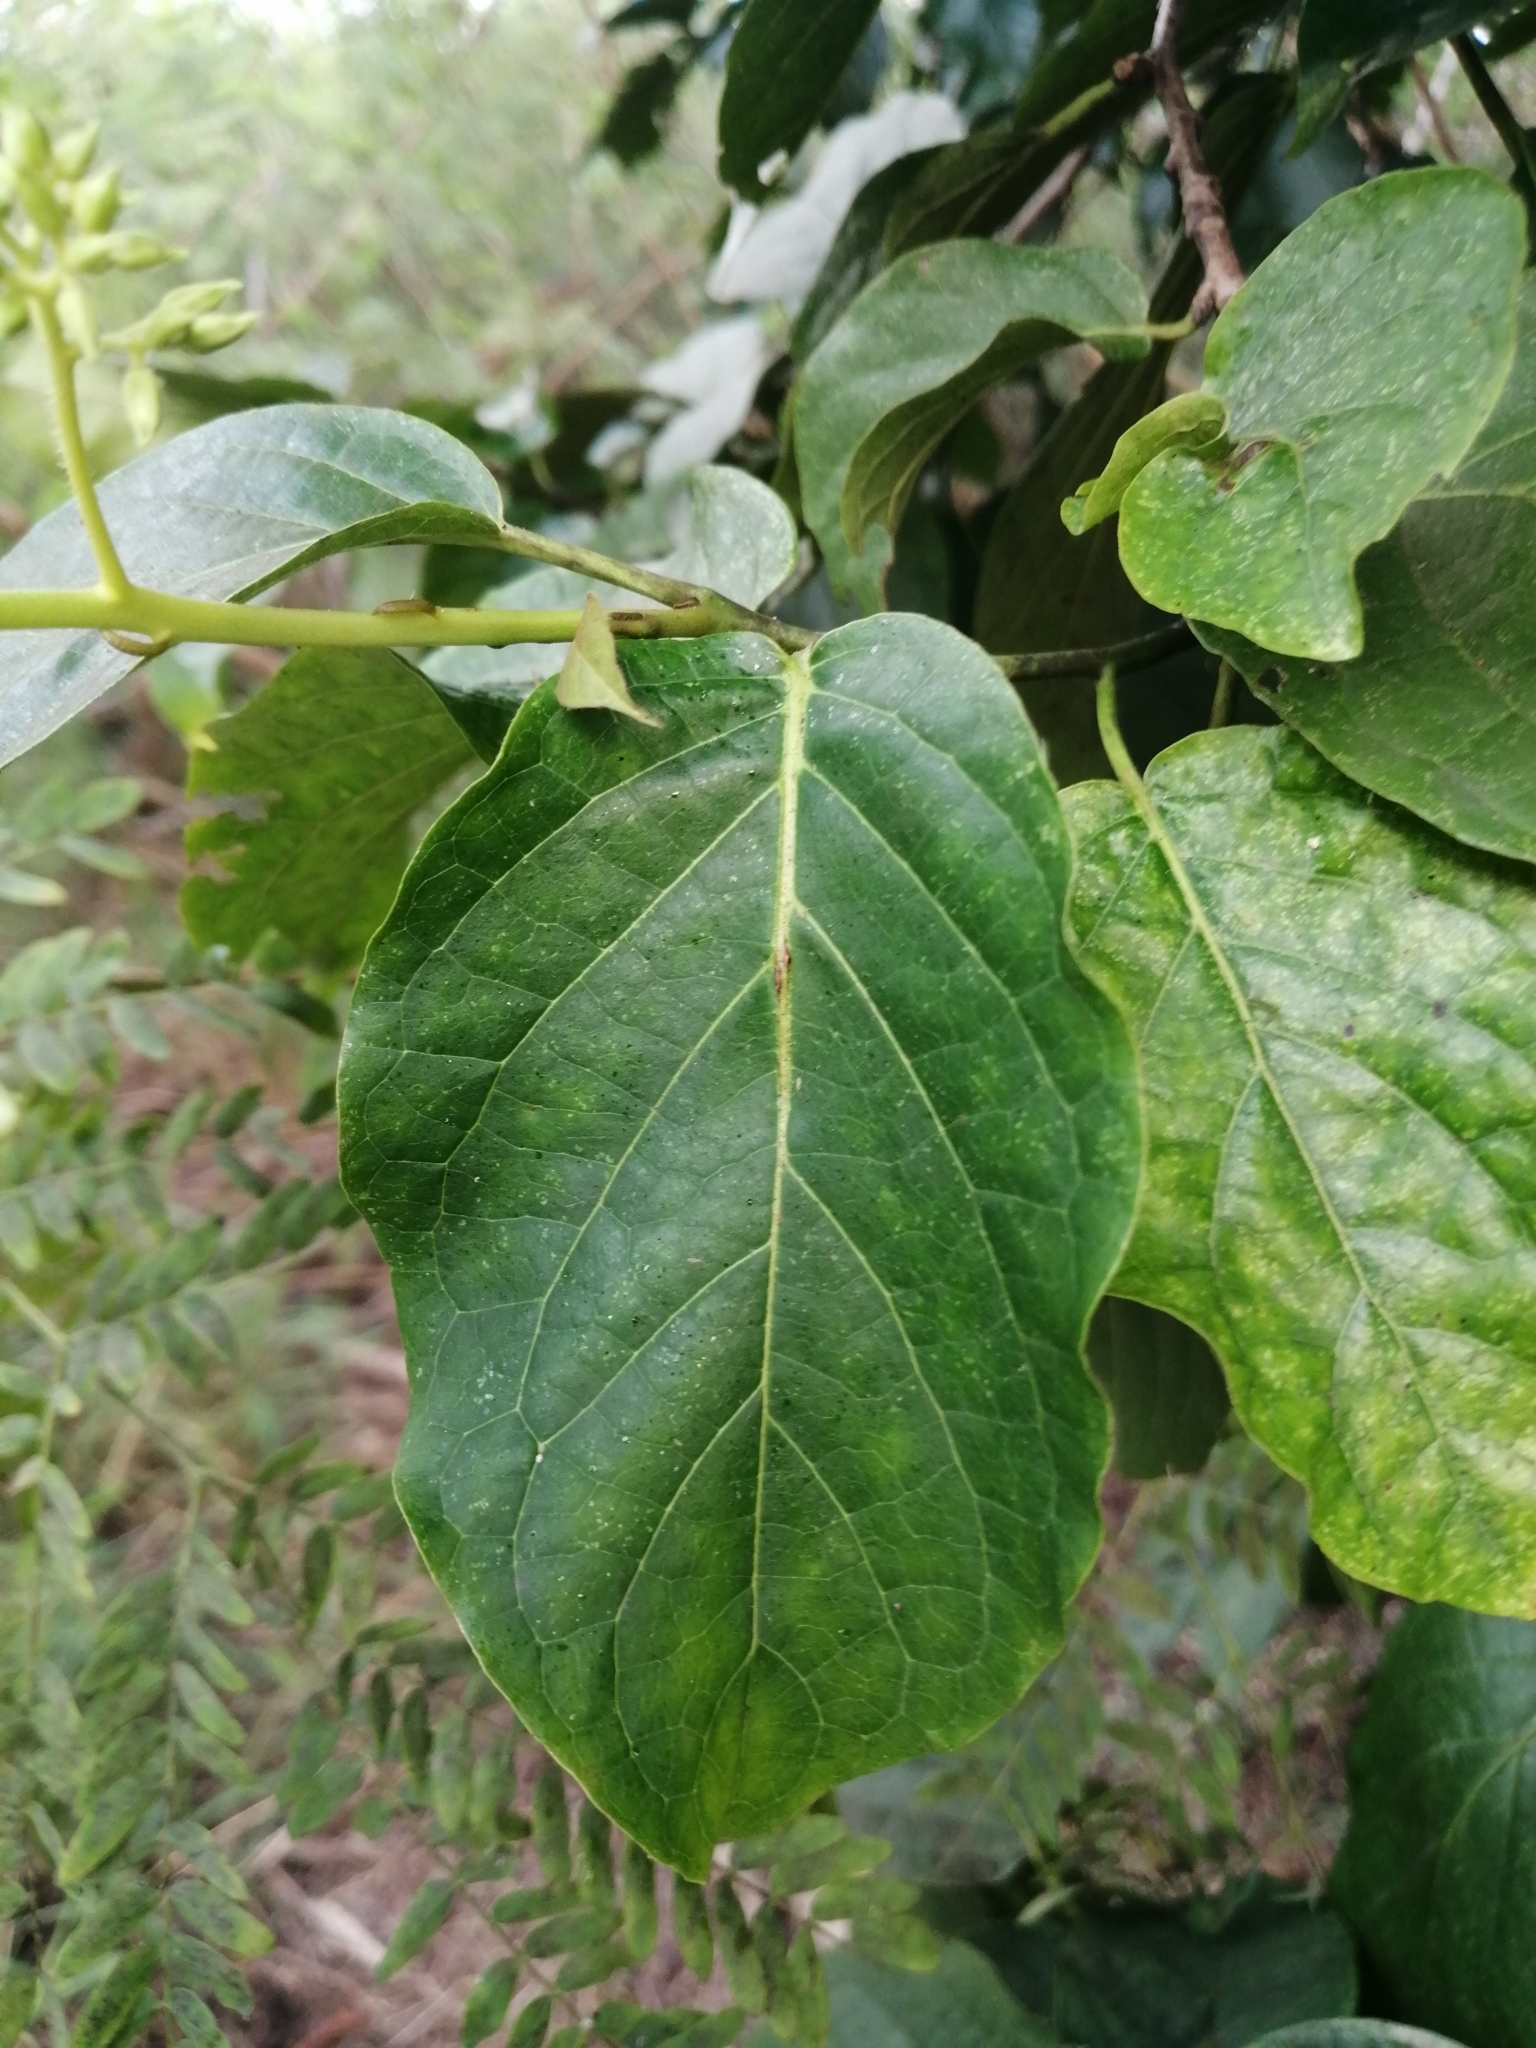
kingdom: Plantae
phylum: Tracheophyta
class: Magnoliopsida
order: Boraginales
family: Ehretiaceae
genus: Ehretia
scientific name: Ehretia resinosa
